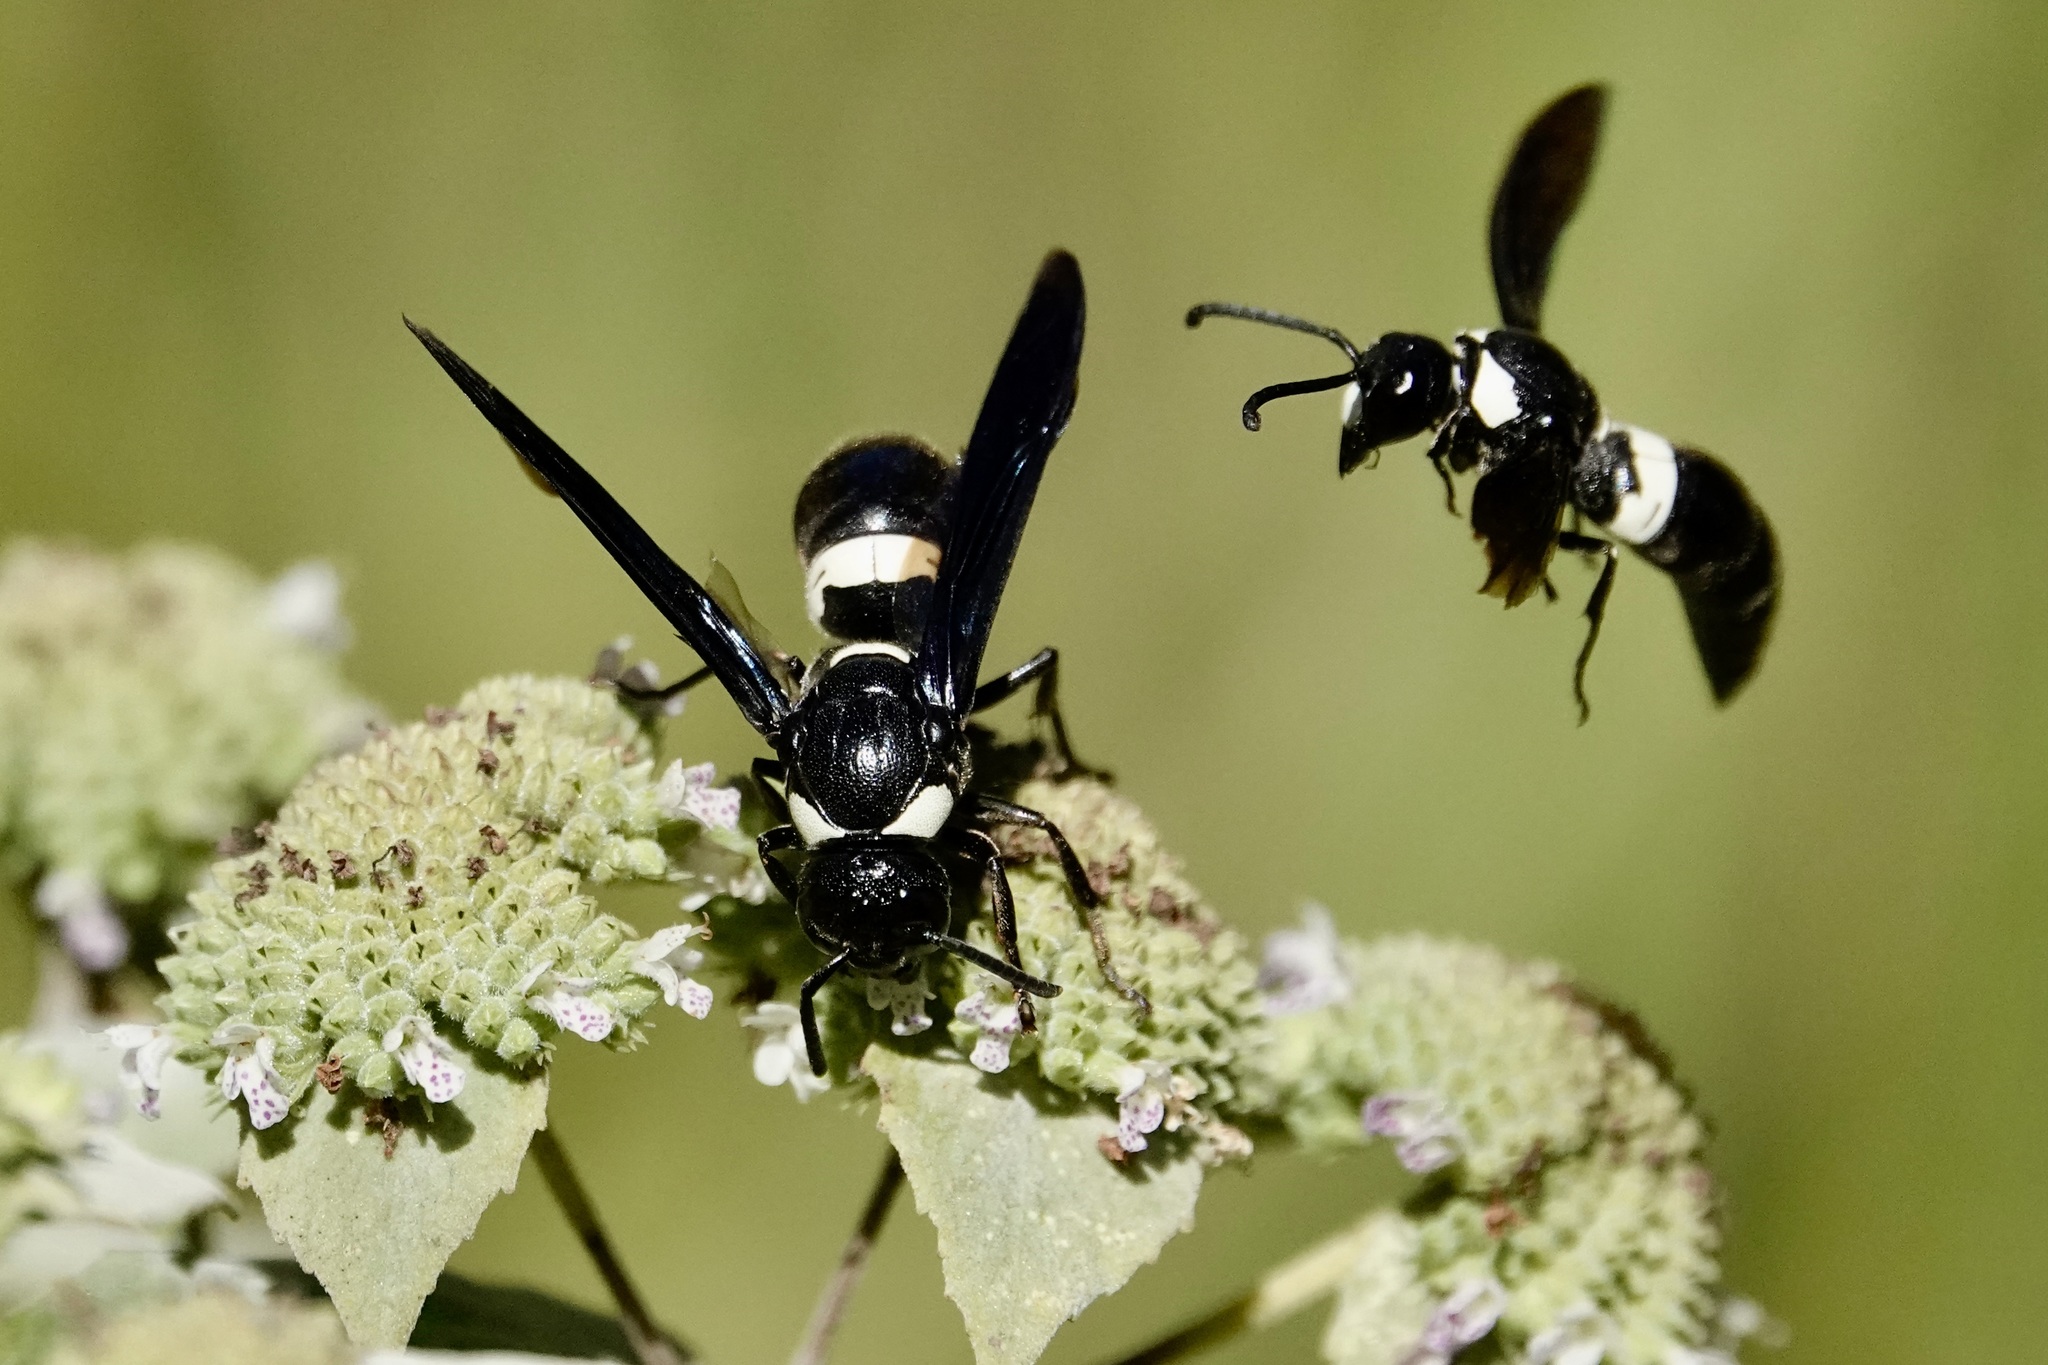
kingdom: Animalia
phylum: Arthropoda
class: Insecta
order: Hymenoptera
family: Eumenidae
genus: Monobia
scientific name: Monobia quadridens
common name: Four-toothed mason wasp
